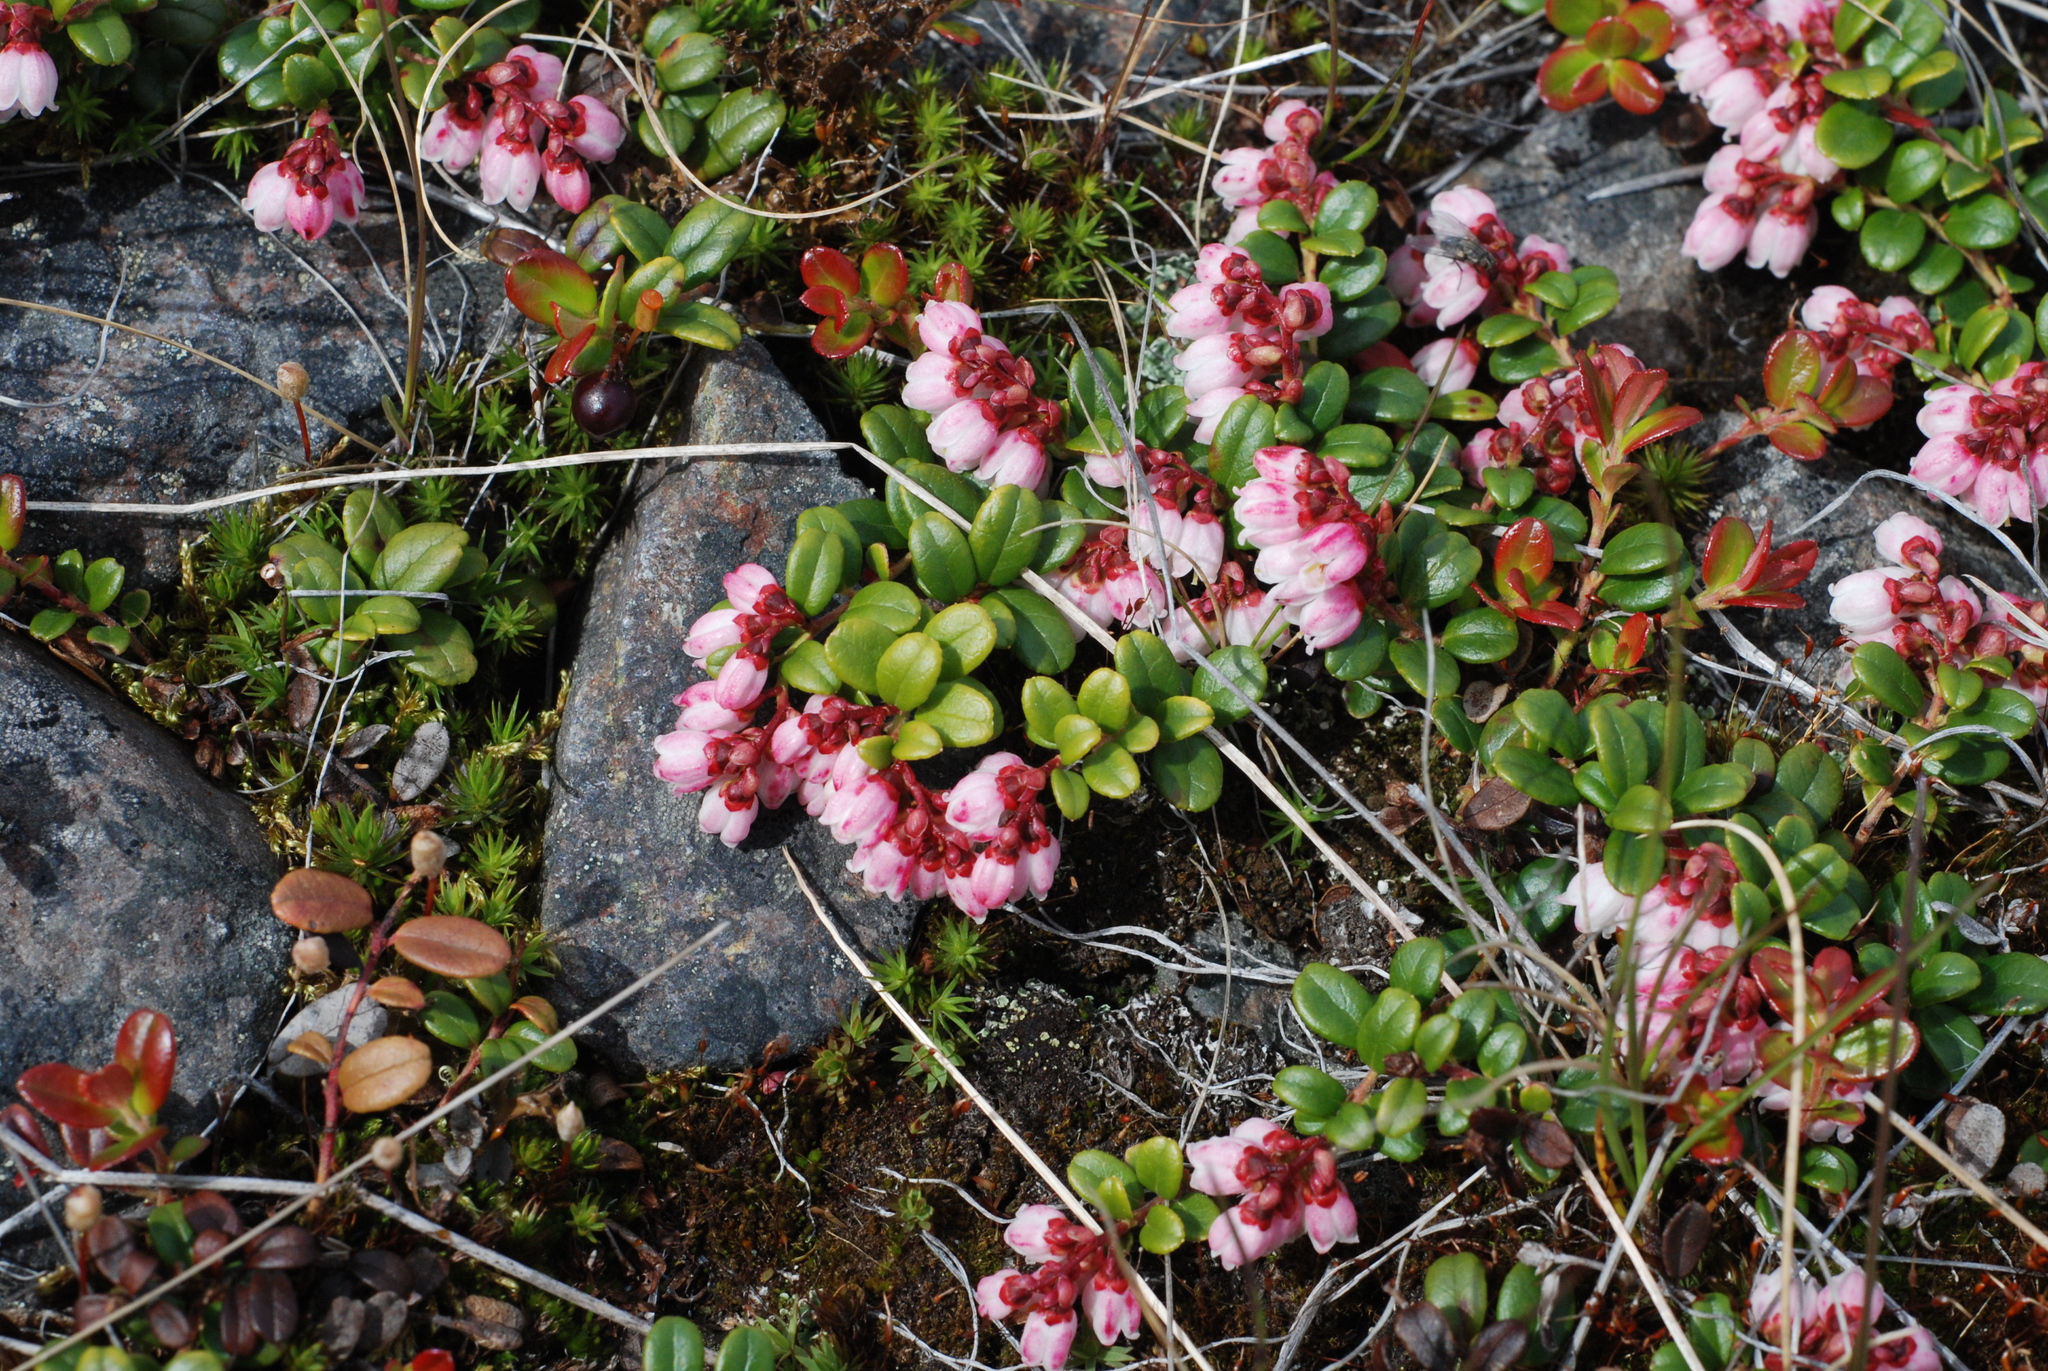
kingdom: Plantae
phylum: Tracheophyta
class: Magnoliopsida
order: Ericales
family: Ericaceae
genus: Vaccinium
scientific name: Vaccinium vitis-idaea
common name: Cowberry
